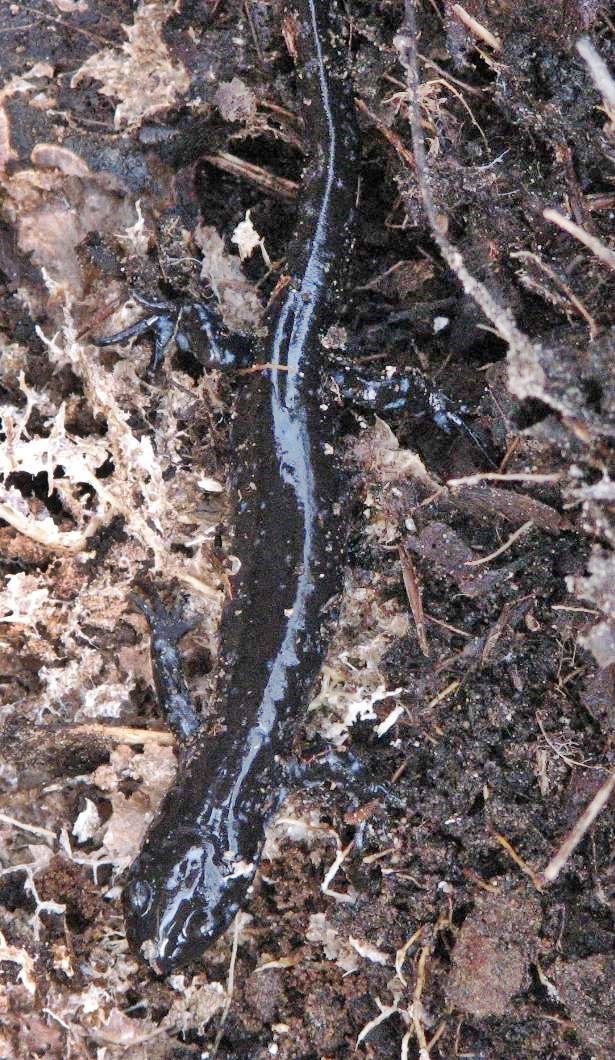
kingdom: Animalia
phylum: Chordata
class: Amphibia
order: Caudata
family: Ambystomatidae
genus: Ambystoma
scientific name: Ambystoma laterale
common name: Blue-spotted salamander
